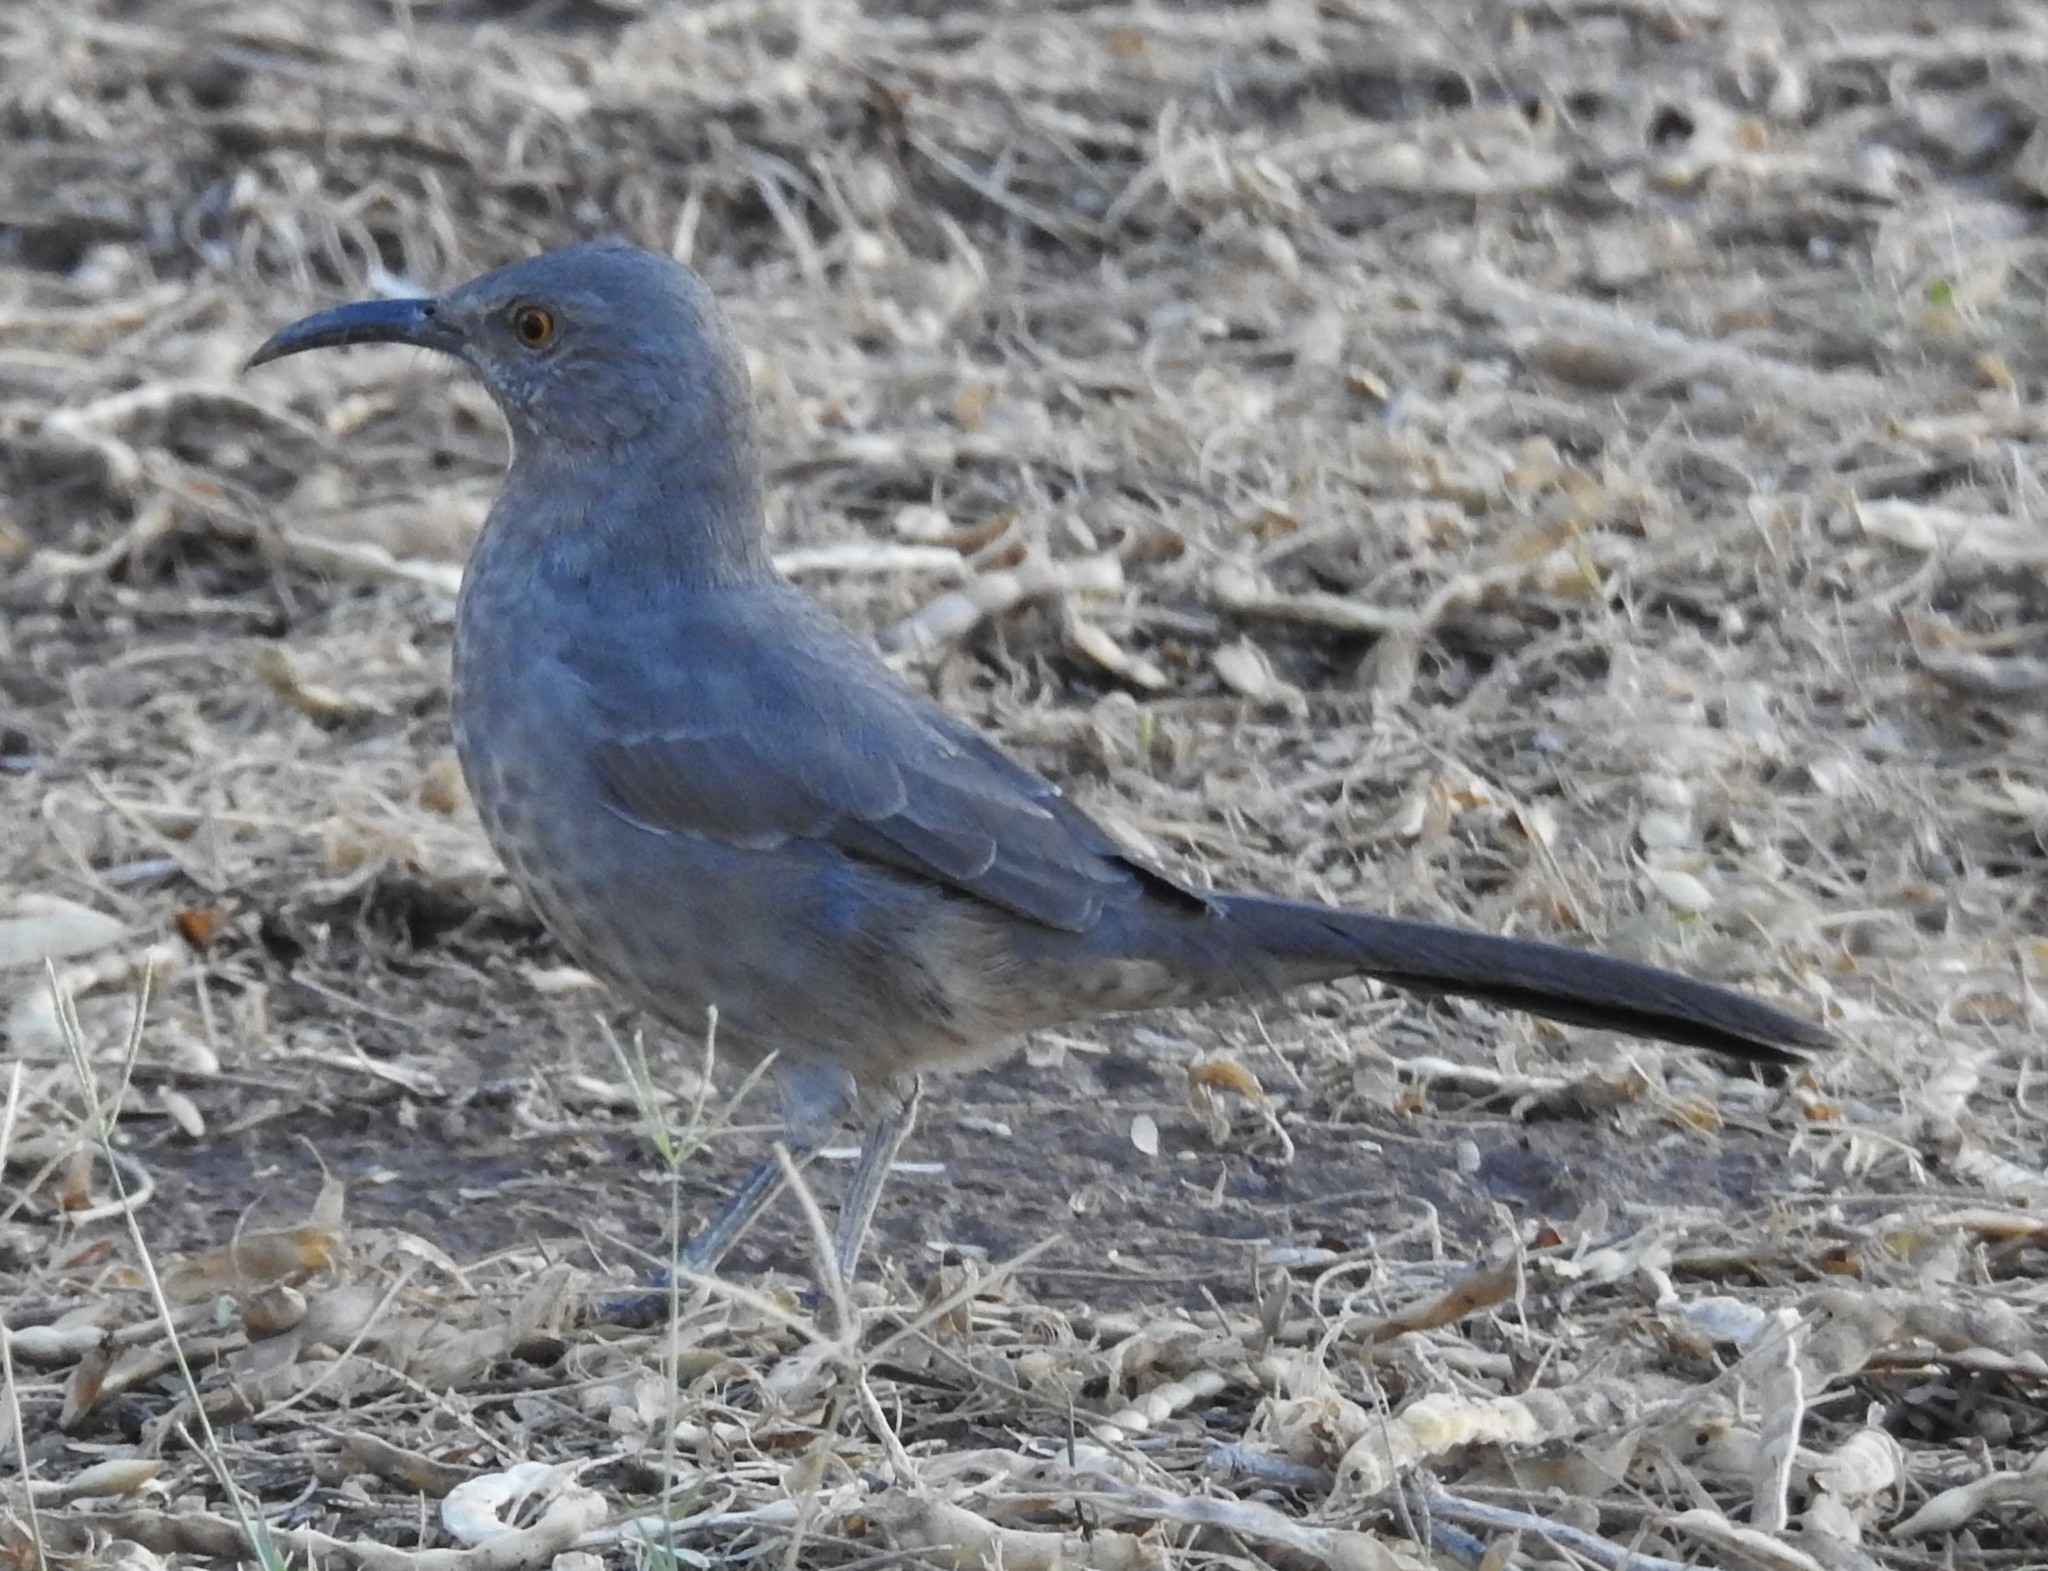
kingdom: Animalia
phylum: Chordata
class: Aves
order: Passeriformes
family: Mimidae
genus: Toxostoma
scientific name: Toxostoma curvirostre
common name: Curve-billed thrasher
